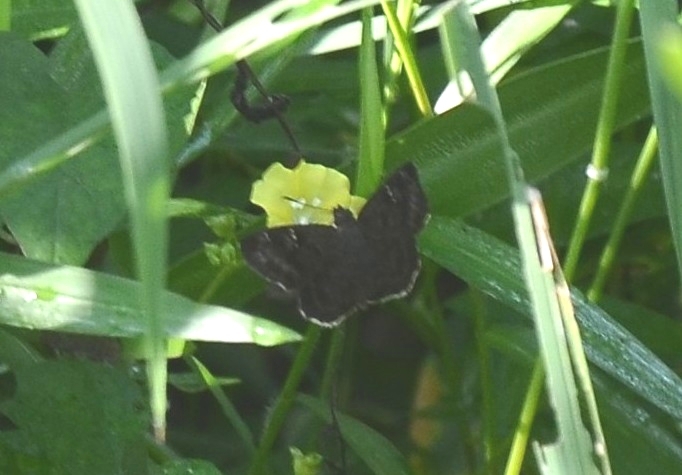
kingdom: Animalia
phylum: Arthropoda
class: Insecta
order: Lepidoptera
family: Hesperiidae
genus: Sarangesa
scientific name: Sarangesa dasahara
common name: Common small flat
